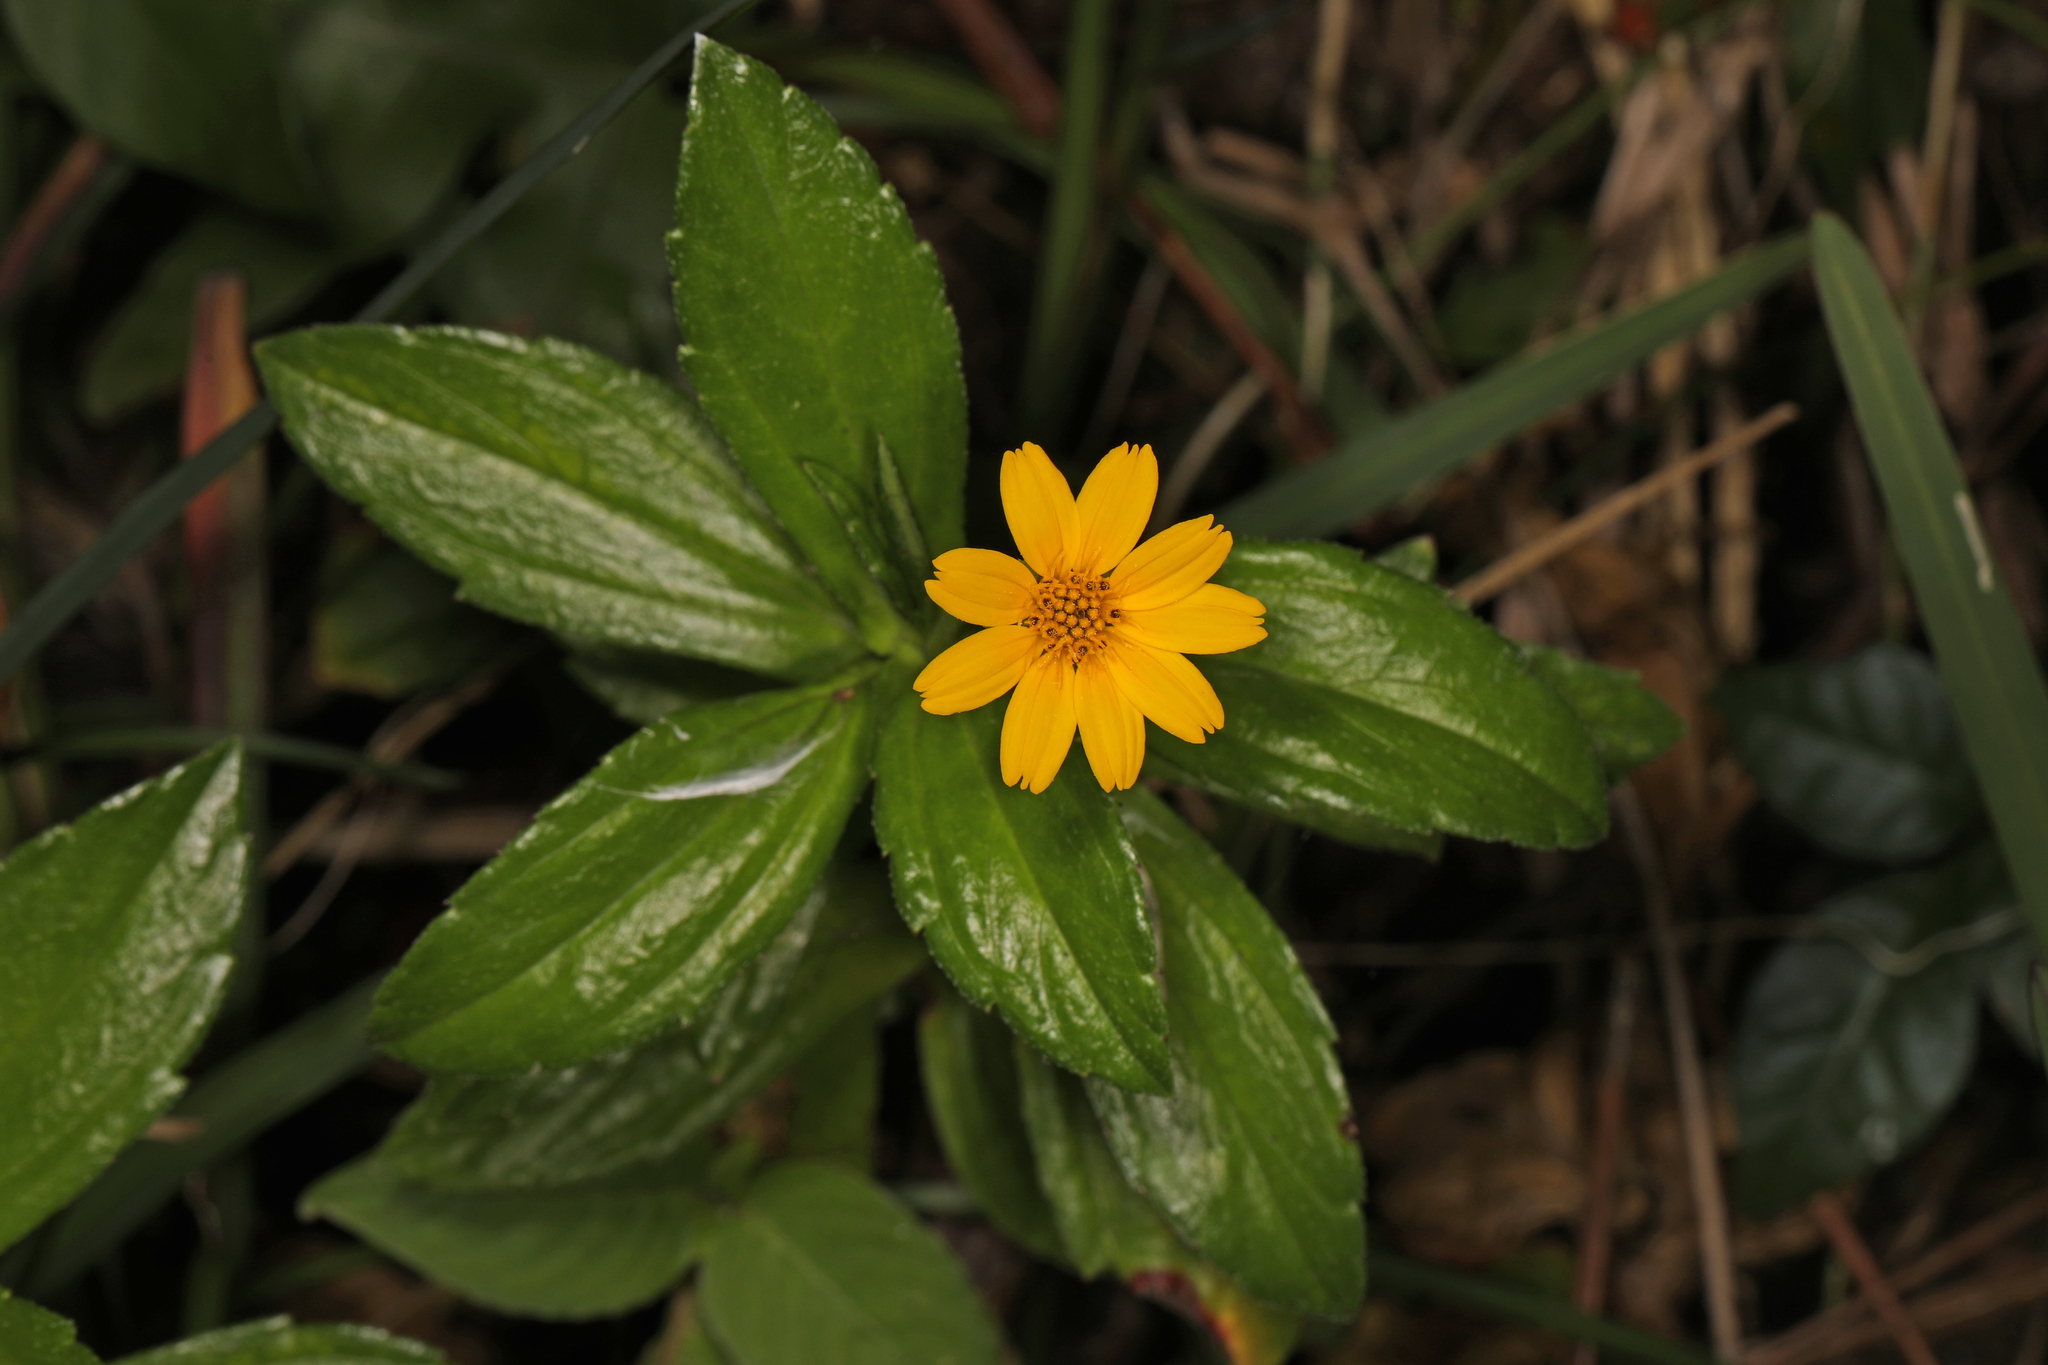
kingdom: Plantae
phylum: Tracheophyta
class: Magnoliopsida
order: Asterales
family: Asteraceae
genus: Sphagneticola
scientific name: Sphagneticola trilobata
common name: Bay biscayne creeping-oxeye
